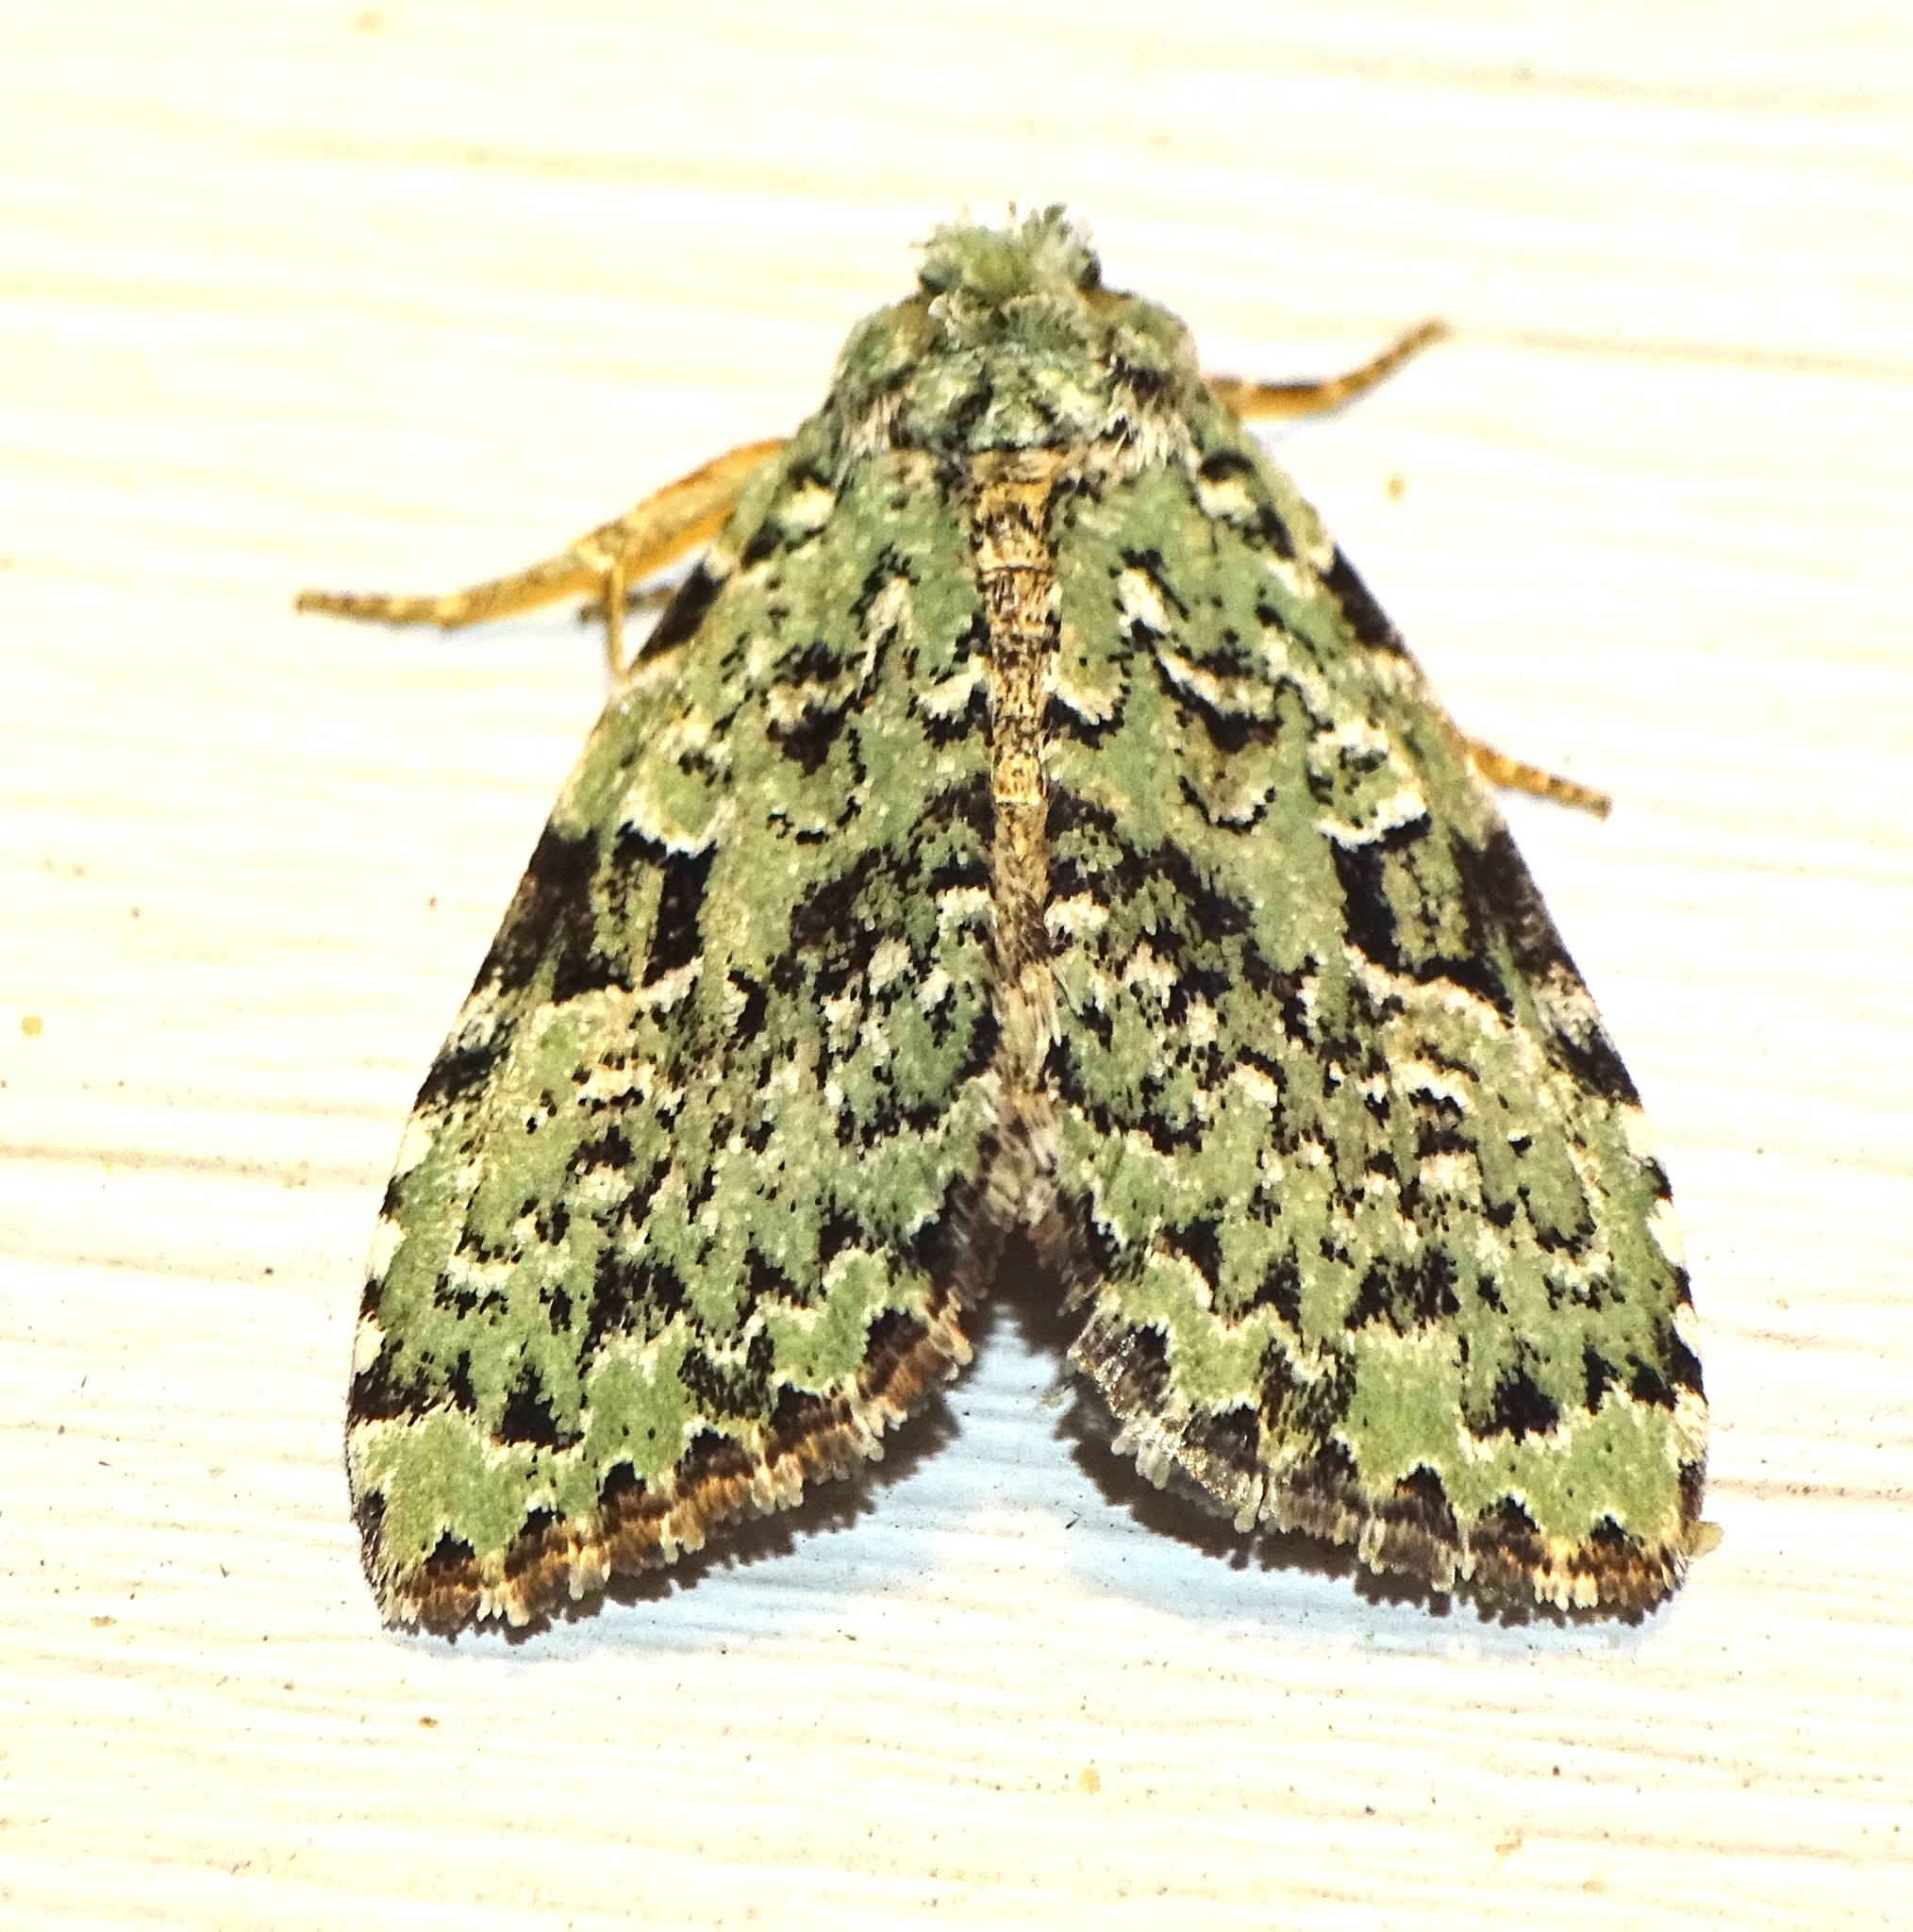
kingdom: Animalia
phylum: Arthropoda
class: Insecta
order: Lepidoptera
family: Noctuidae
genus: Leuconycta
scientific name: Leuconycta diphteroides
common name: Green leuconycta moth
